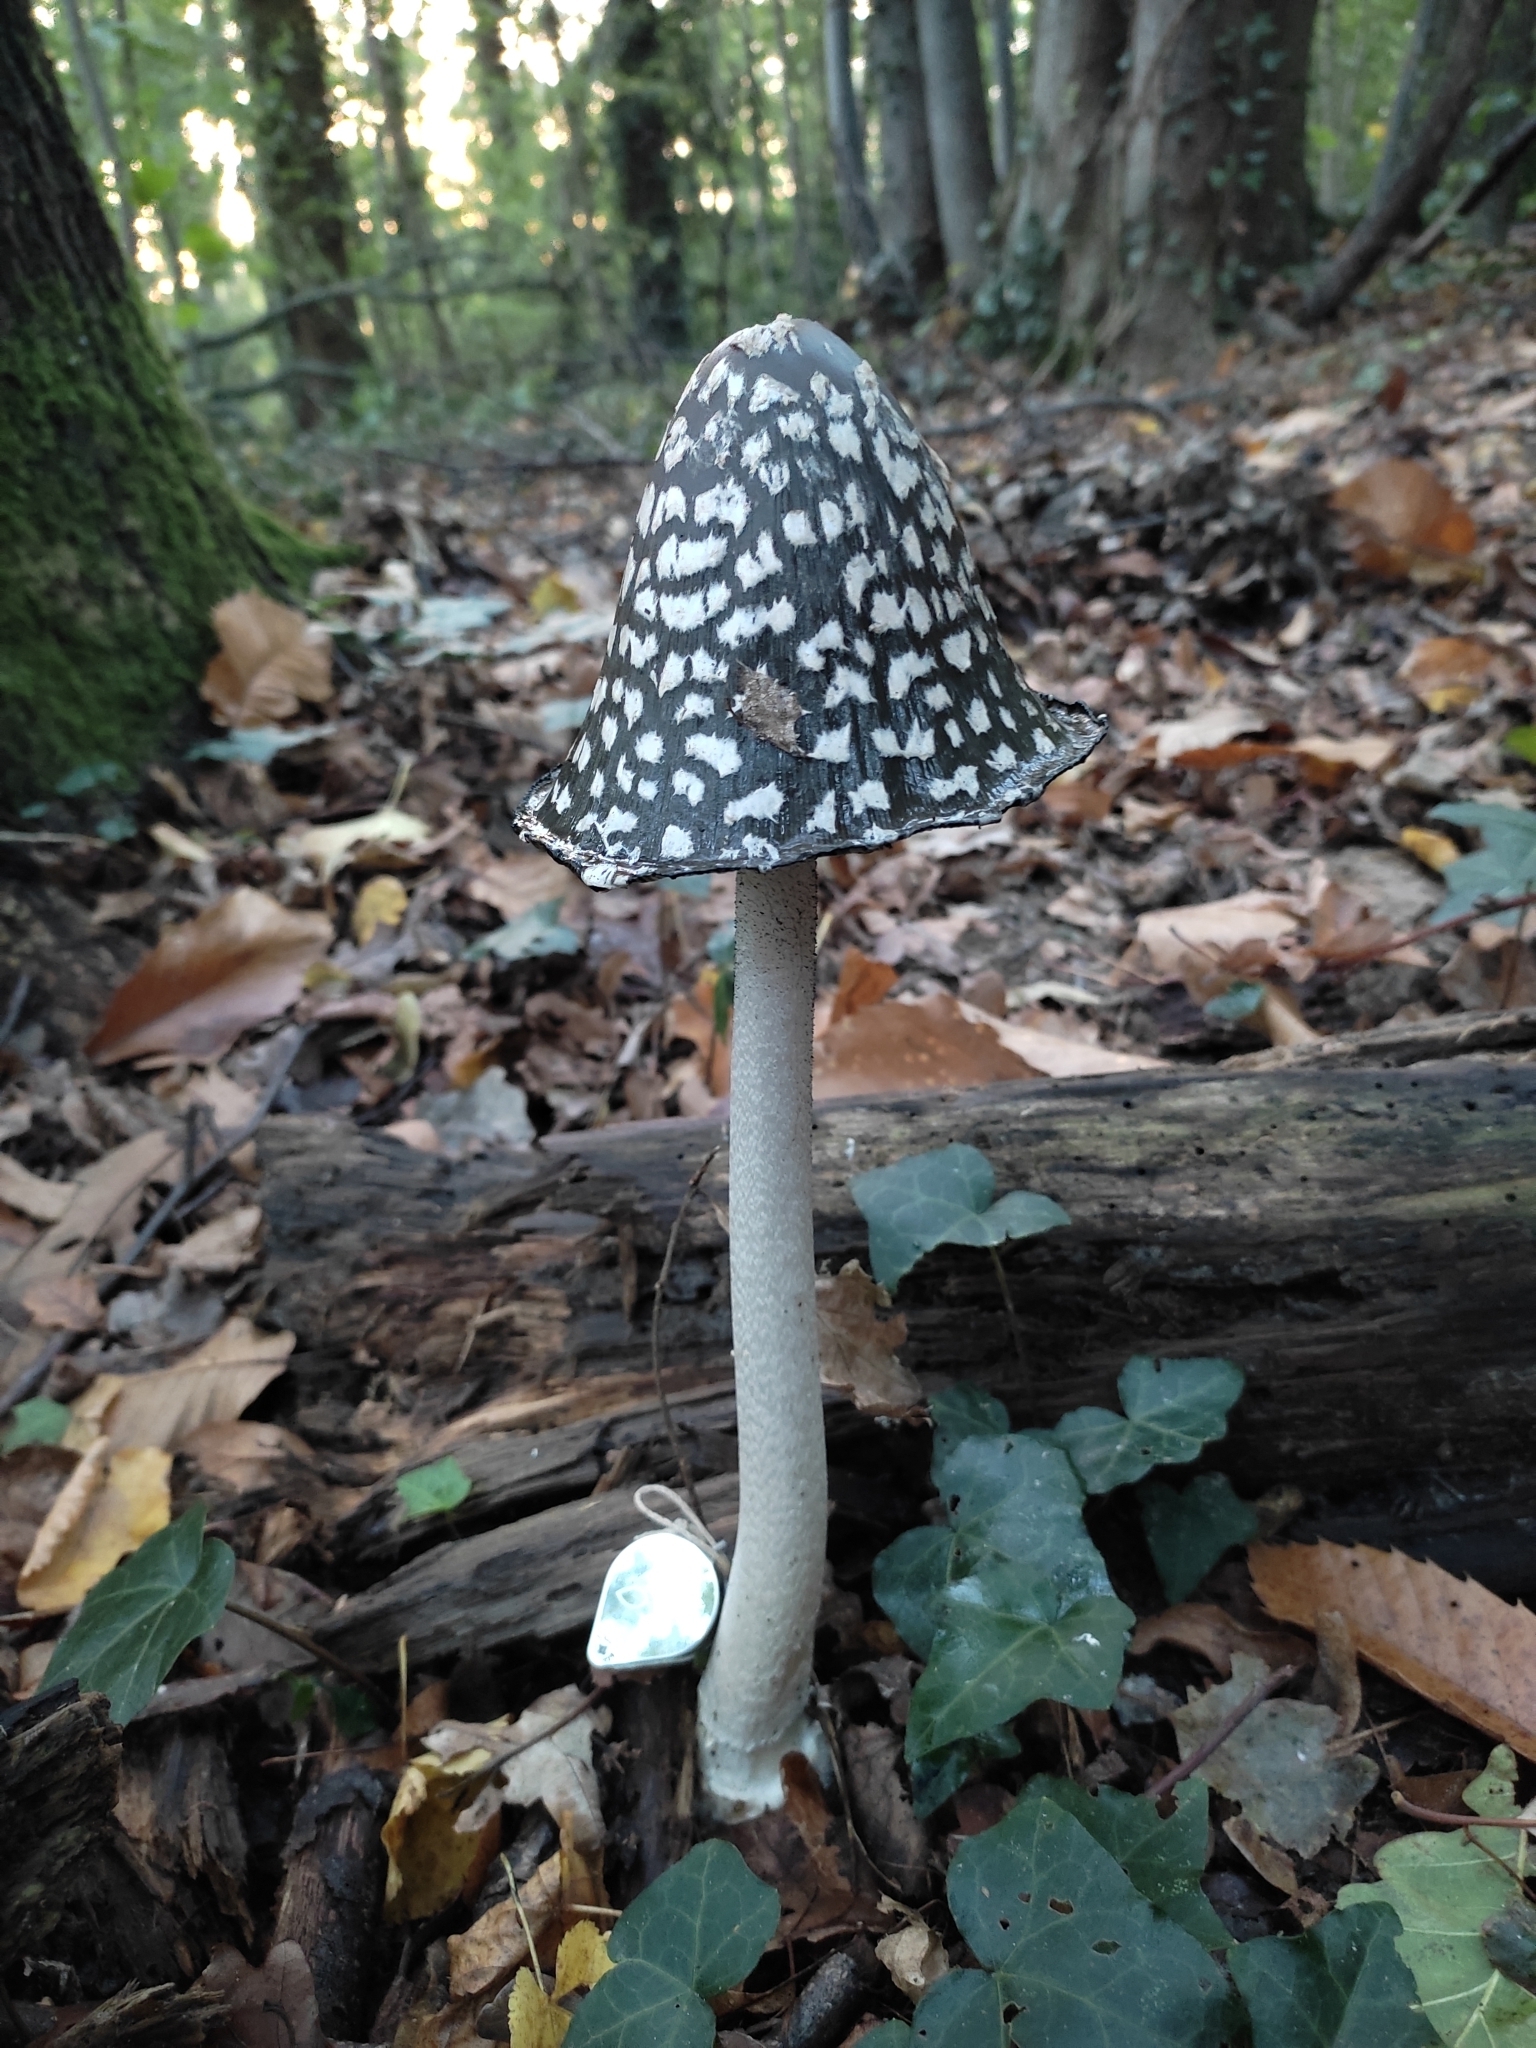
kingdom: Fungi
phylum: Basidiomycota
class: Agaricomycetes
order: Agaricales
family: Psathyrellaceae
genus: Coprinopsis
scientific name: Coprinopsis picacea
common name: Magpie inkcap
